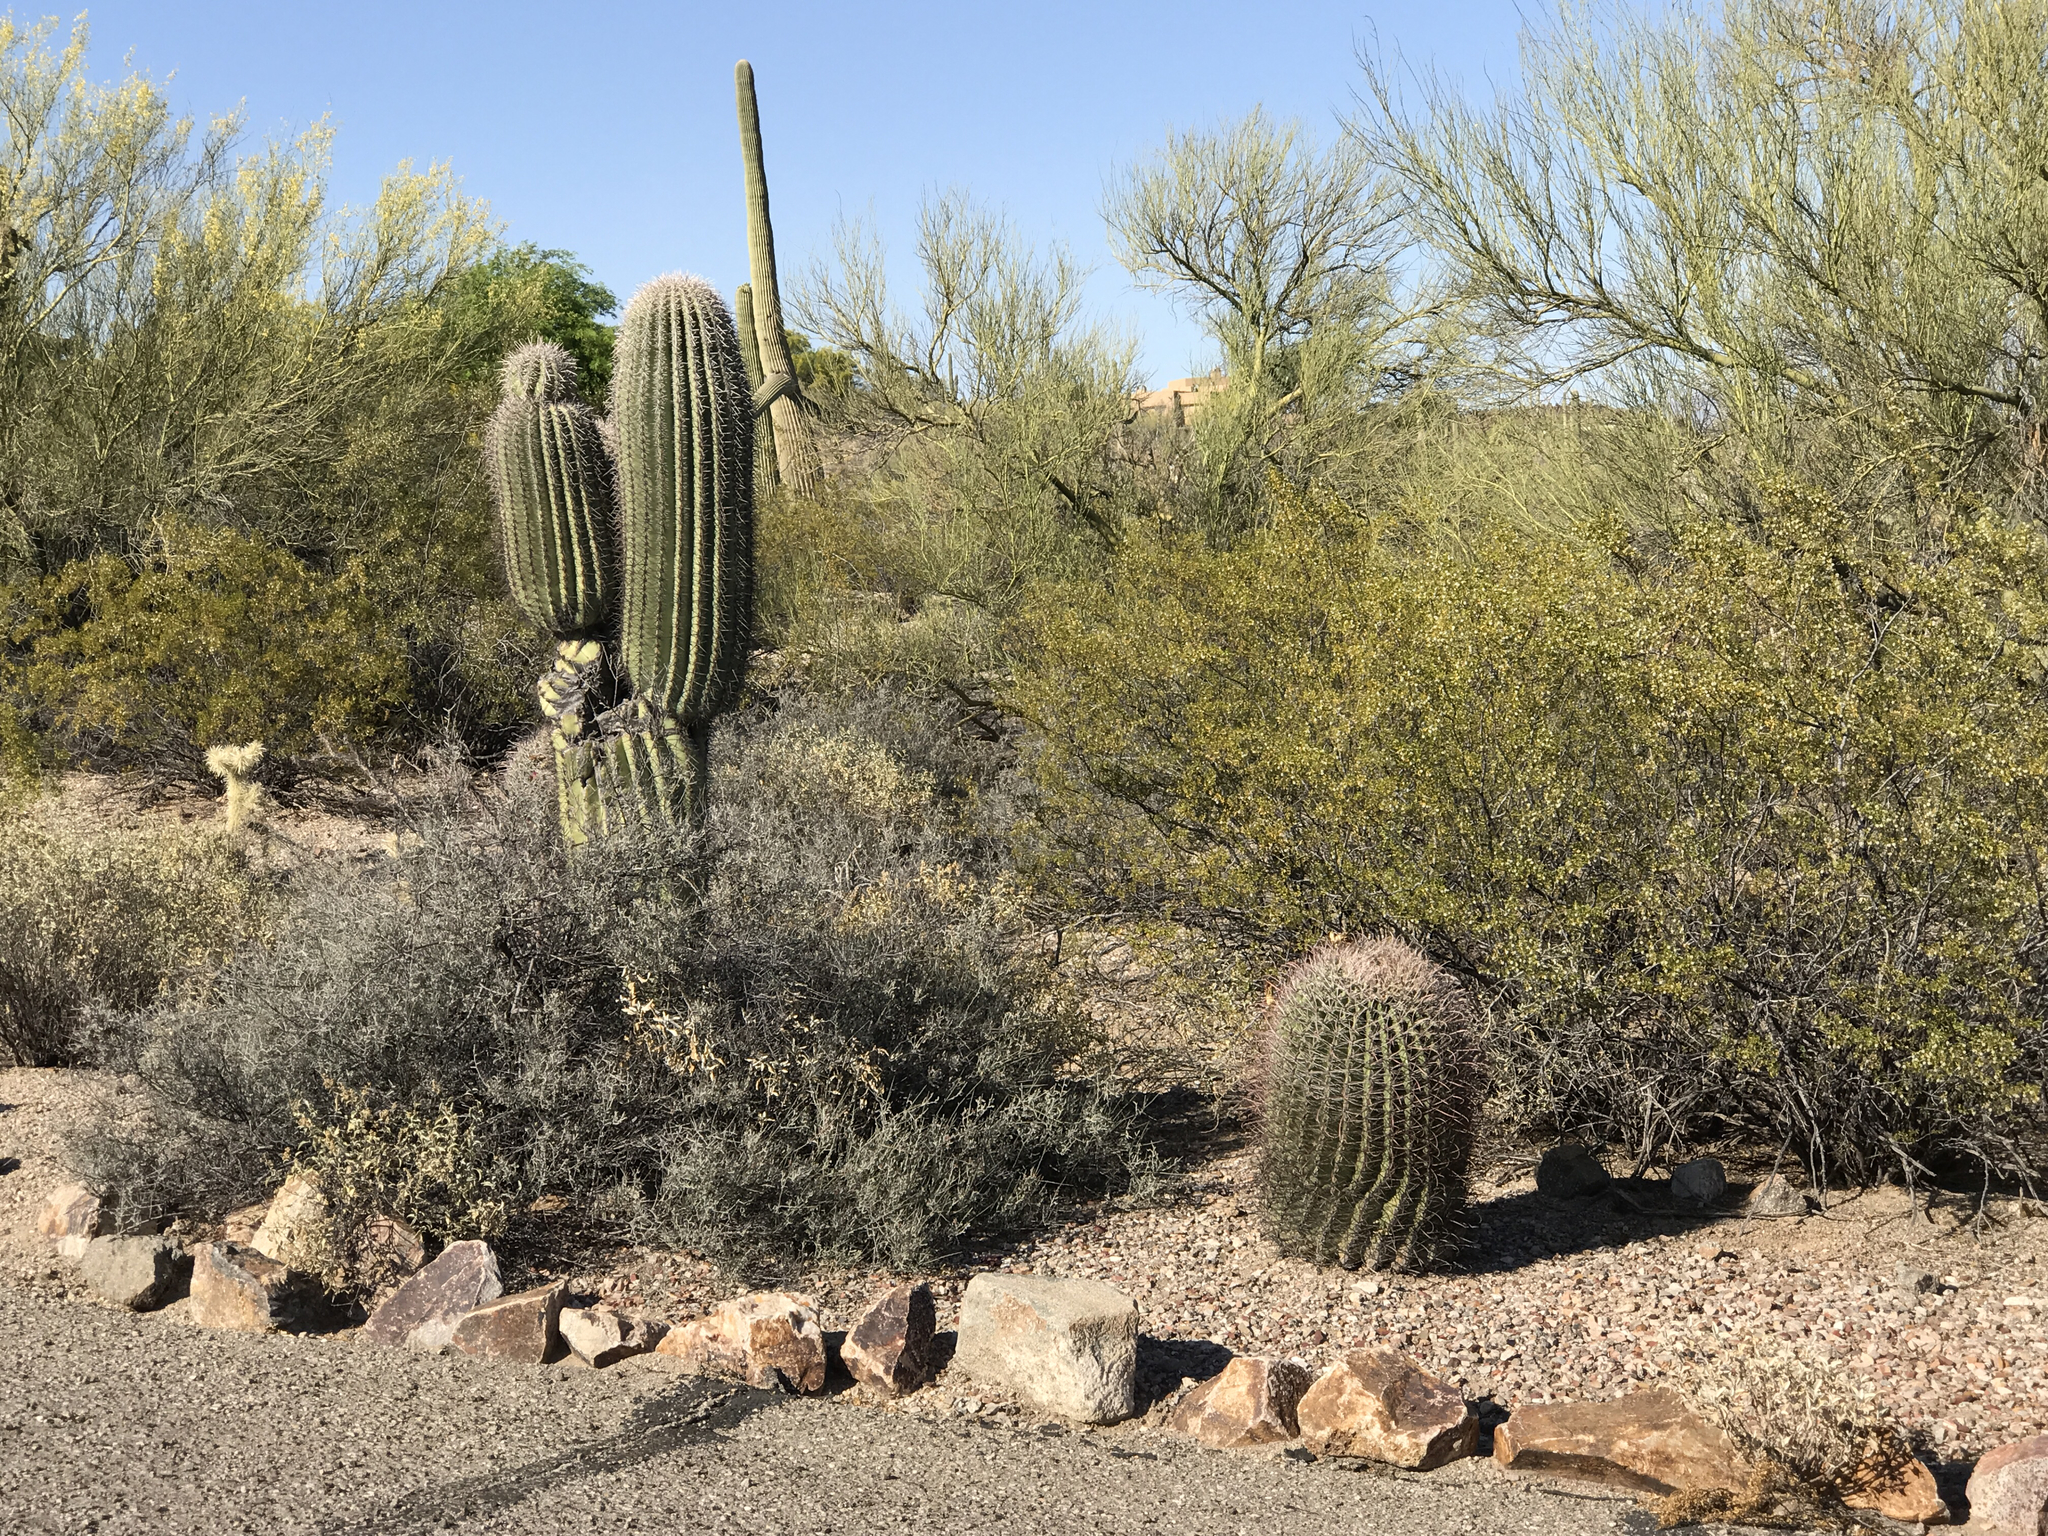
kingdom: Plantae
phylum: Tracheophyta
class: Magnoliopsida
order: Caryophyllales
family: Cactaceae
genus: Ferocactus
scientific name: Ferocactus wislizeni
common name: Candy barrel cactus
